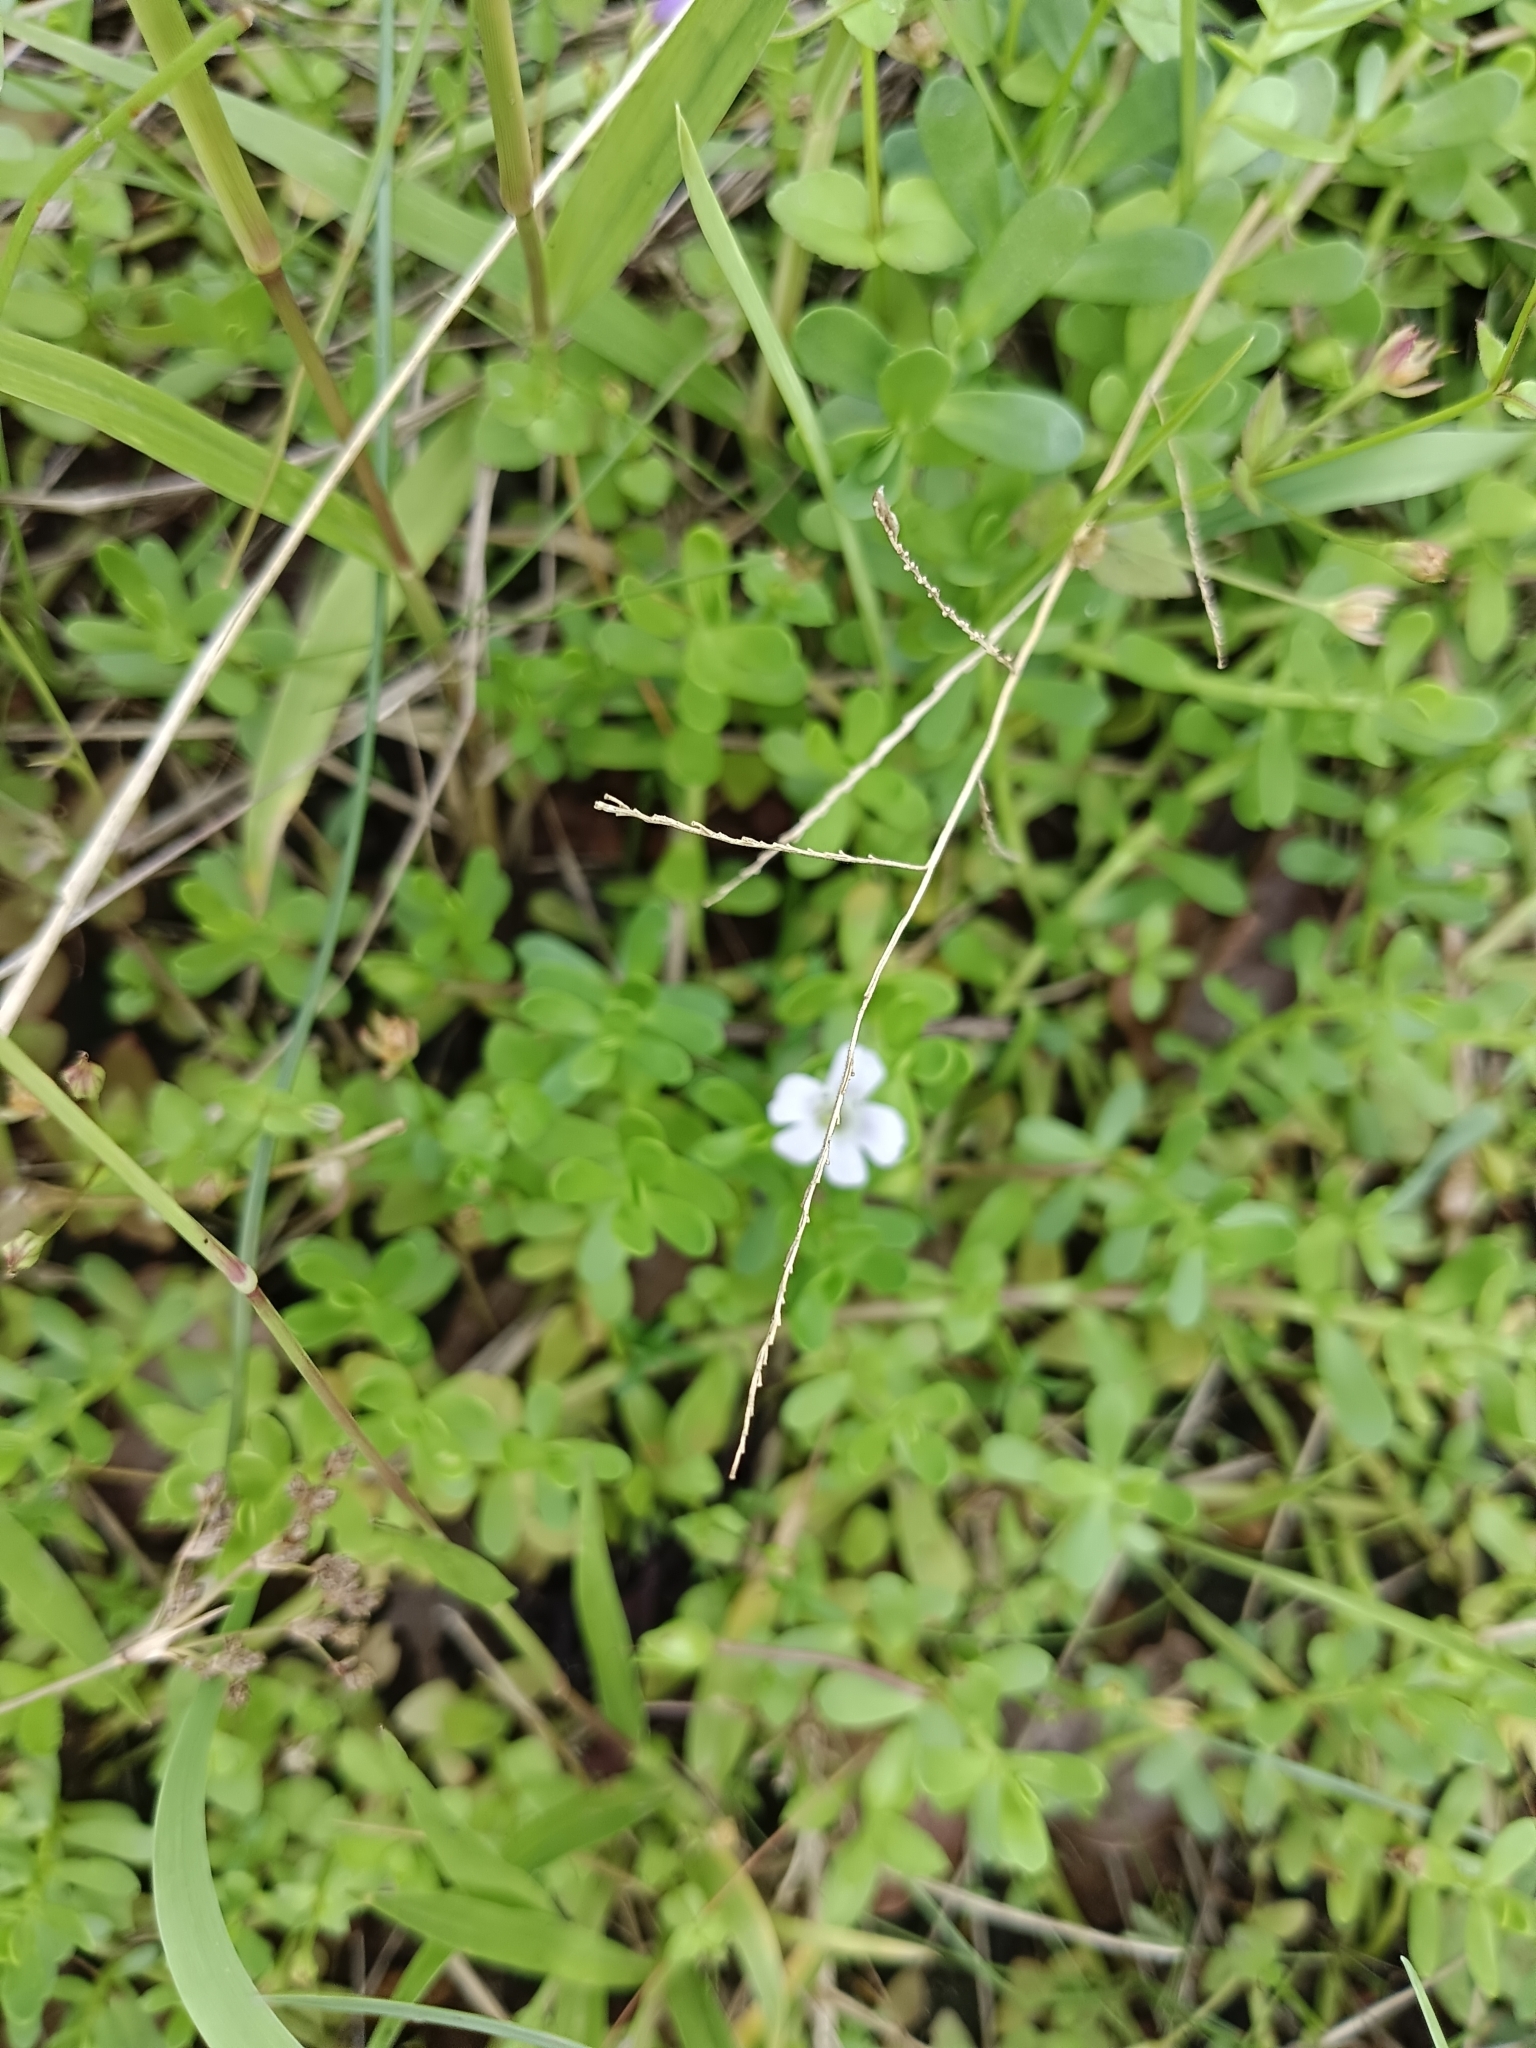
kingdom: Plantae
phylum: Tracheophyta
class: Magnoliopsida
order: Lamiales
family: Plantaginaceae
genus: Bacopa
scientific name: Bacopa monnieri
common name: Indian-pennywort
